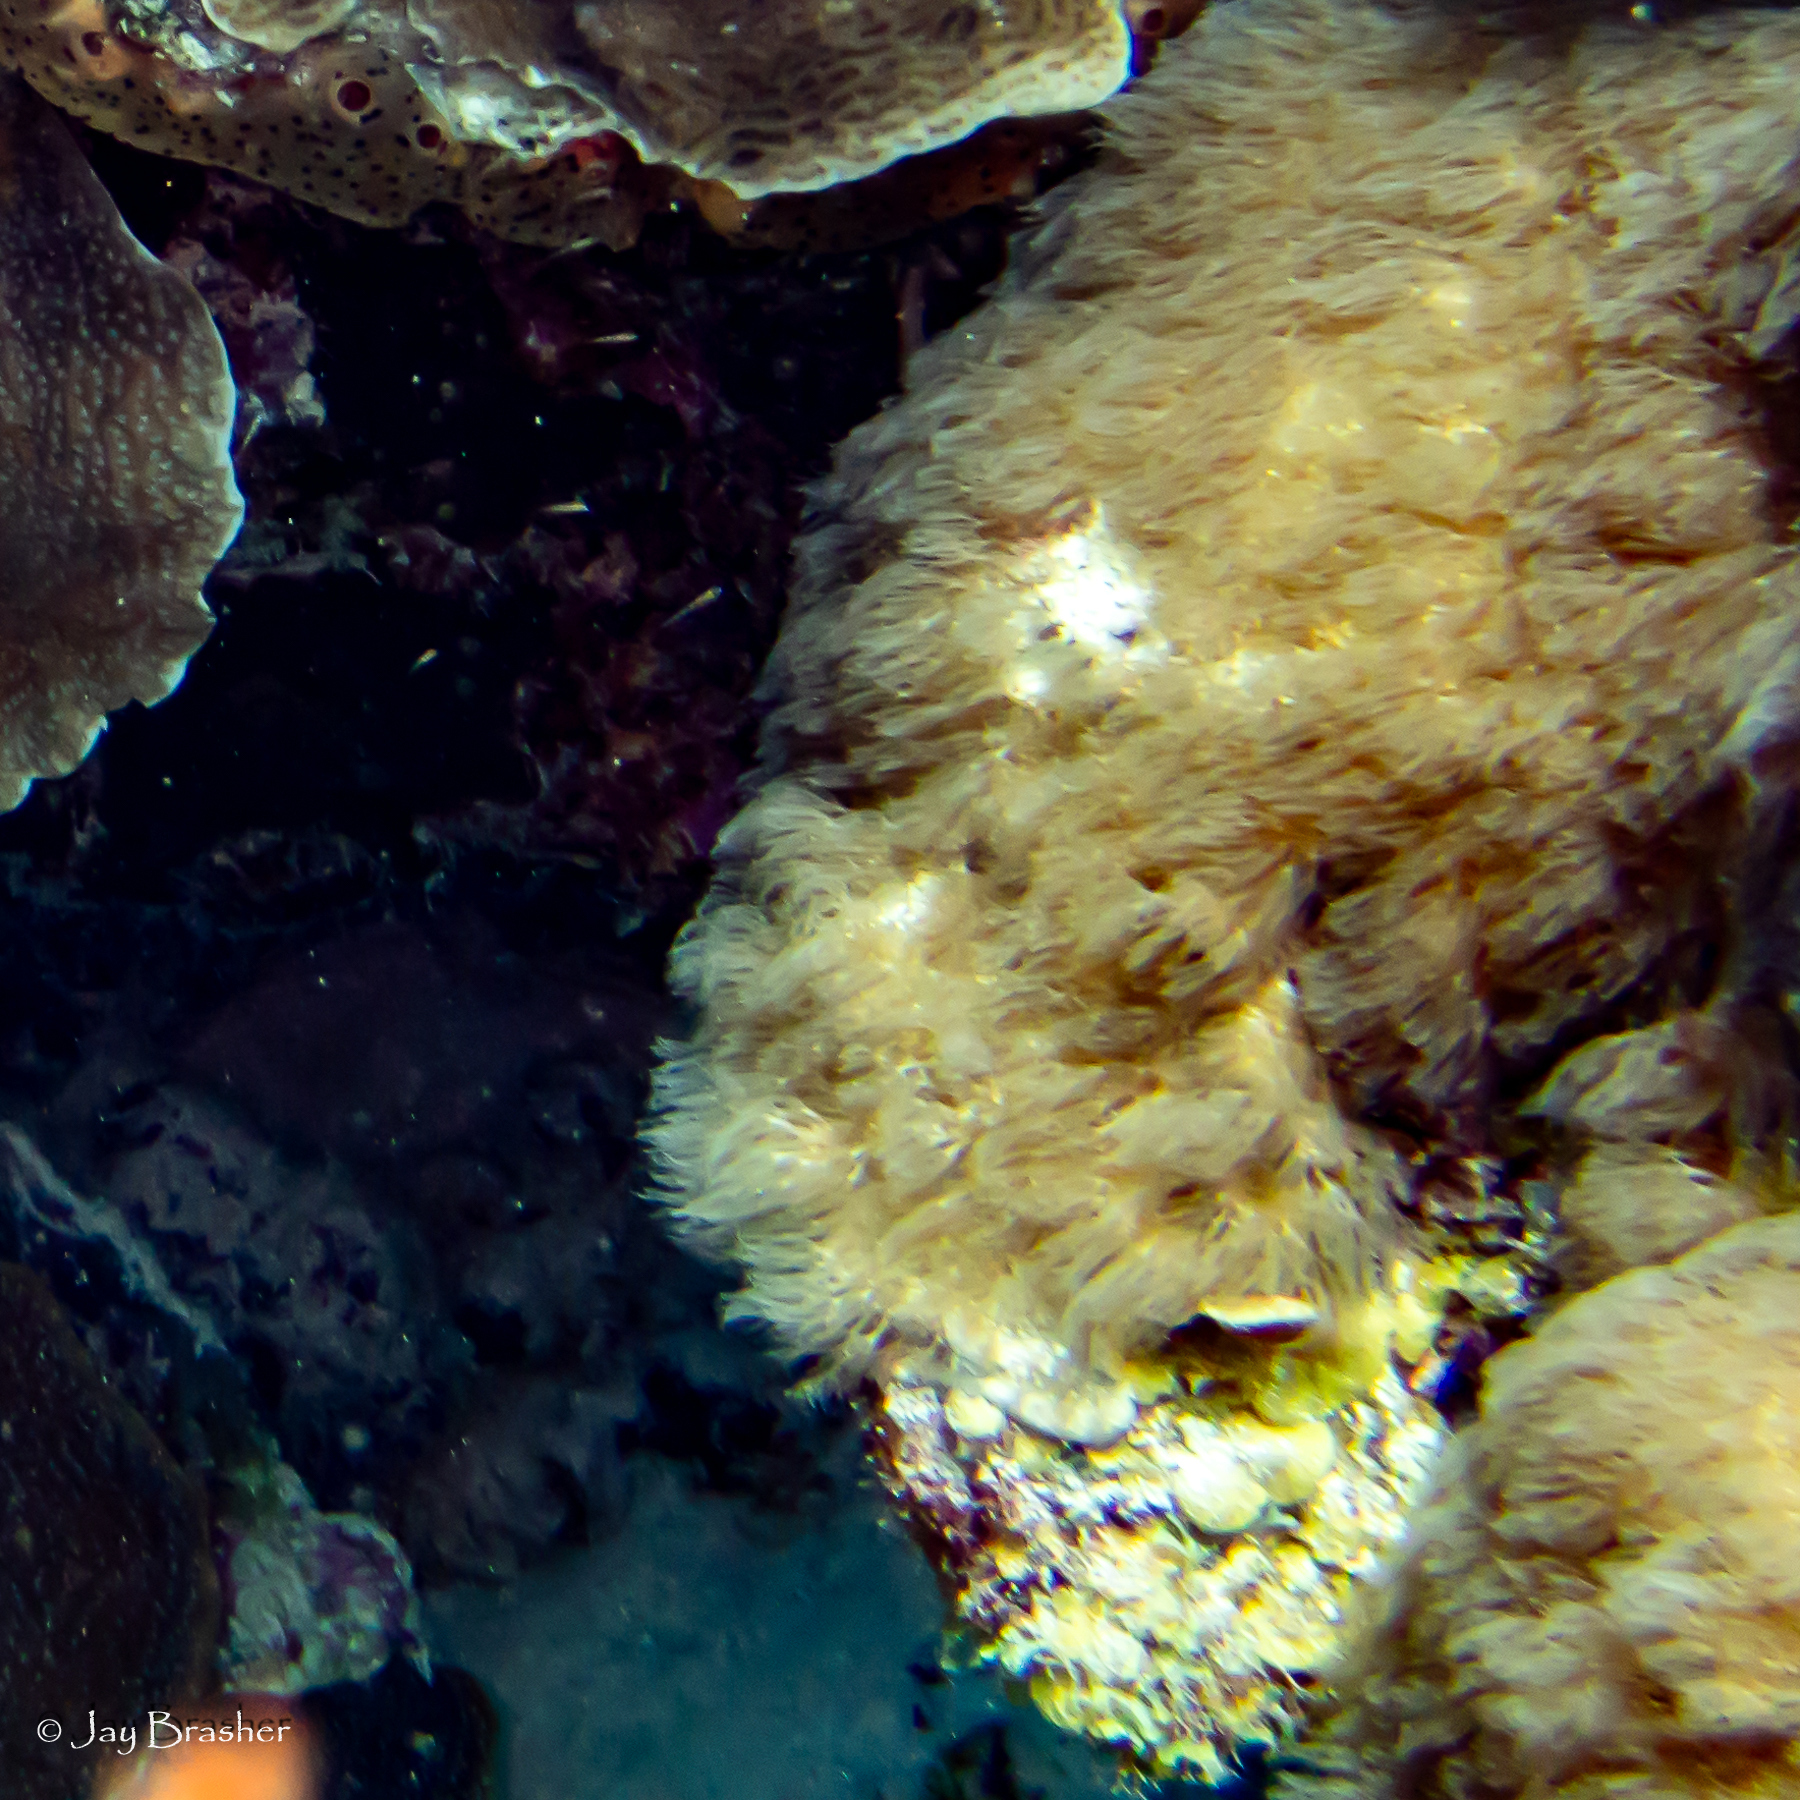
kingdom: Animalia
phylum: Cnidaria
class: Anthozoa
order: Scleralcyonacea
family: Erythropodiidae
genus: Erythropodium
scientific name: Erythropodium caribaeorum
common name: Encrusting gorgonian
